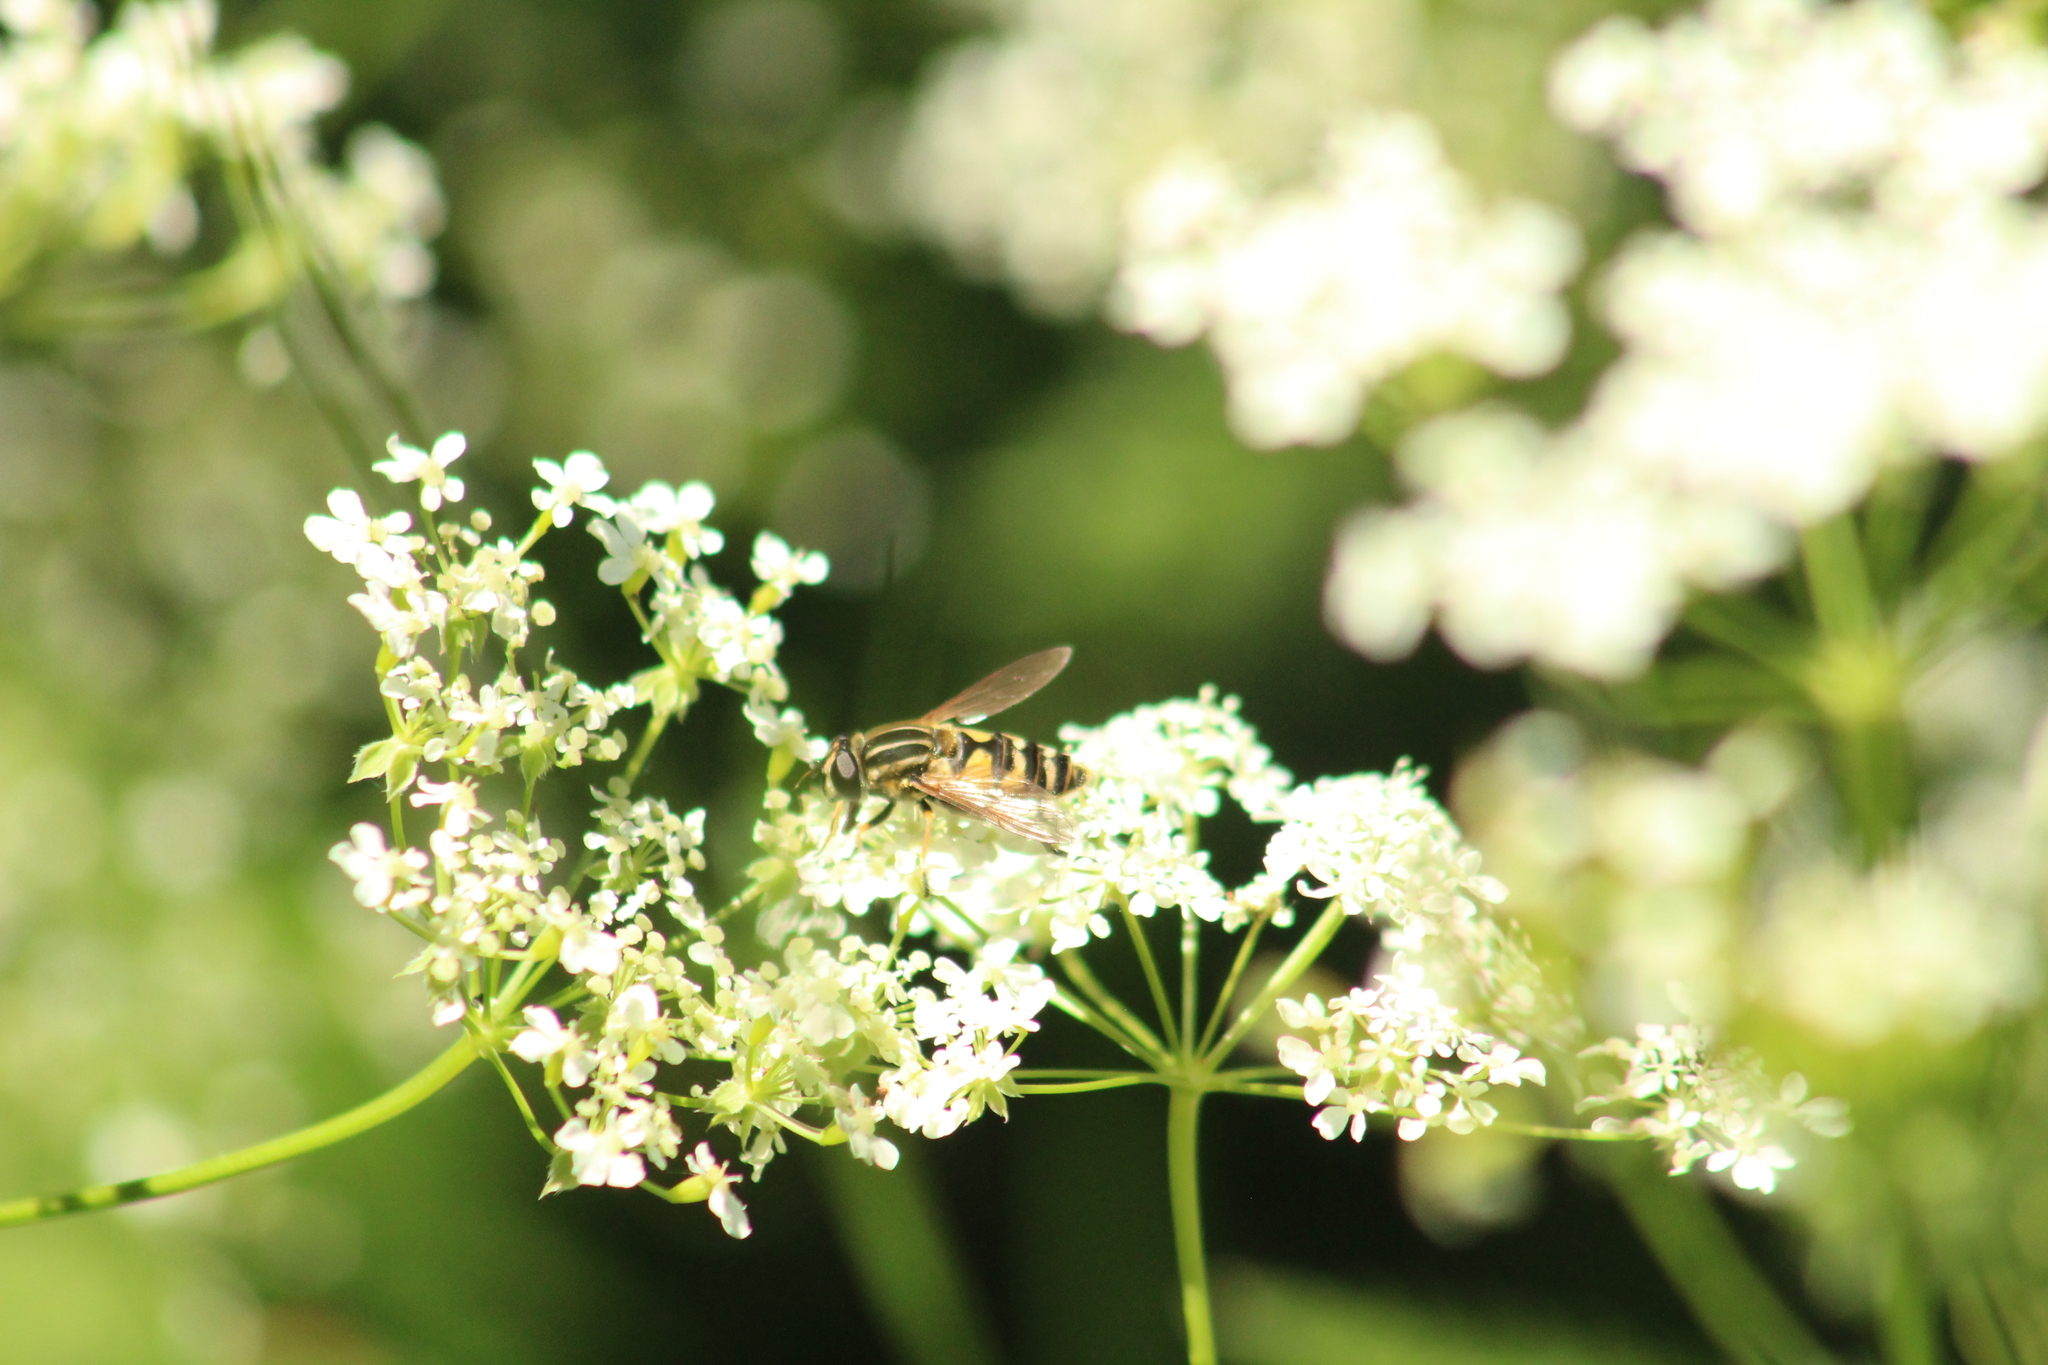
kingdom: Animalia
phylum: Arthropoda
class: Insecta
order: Diptera
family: Syrphidae
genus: Helophilus
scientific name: Helophilus pendulus
